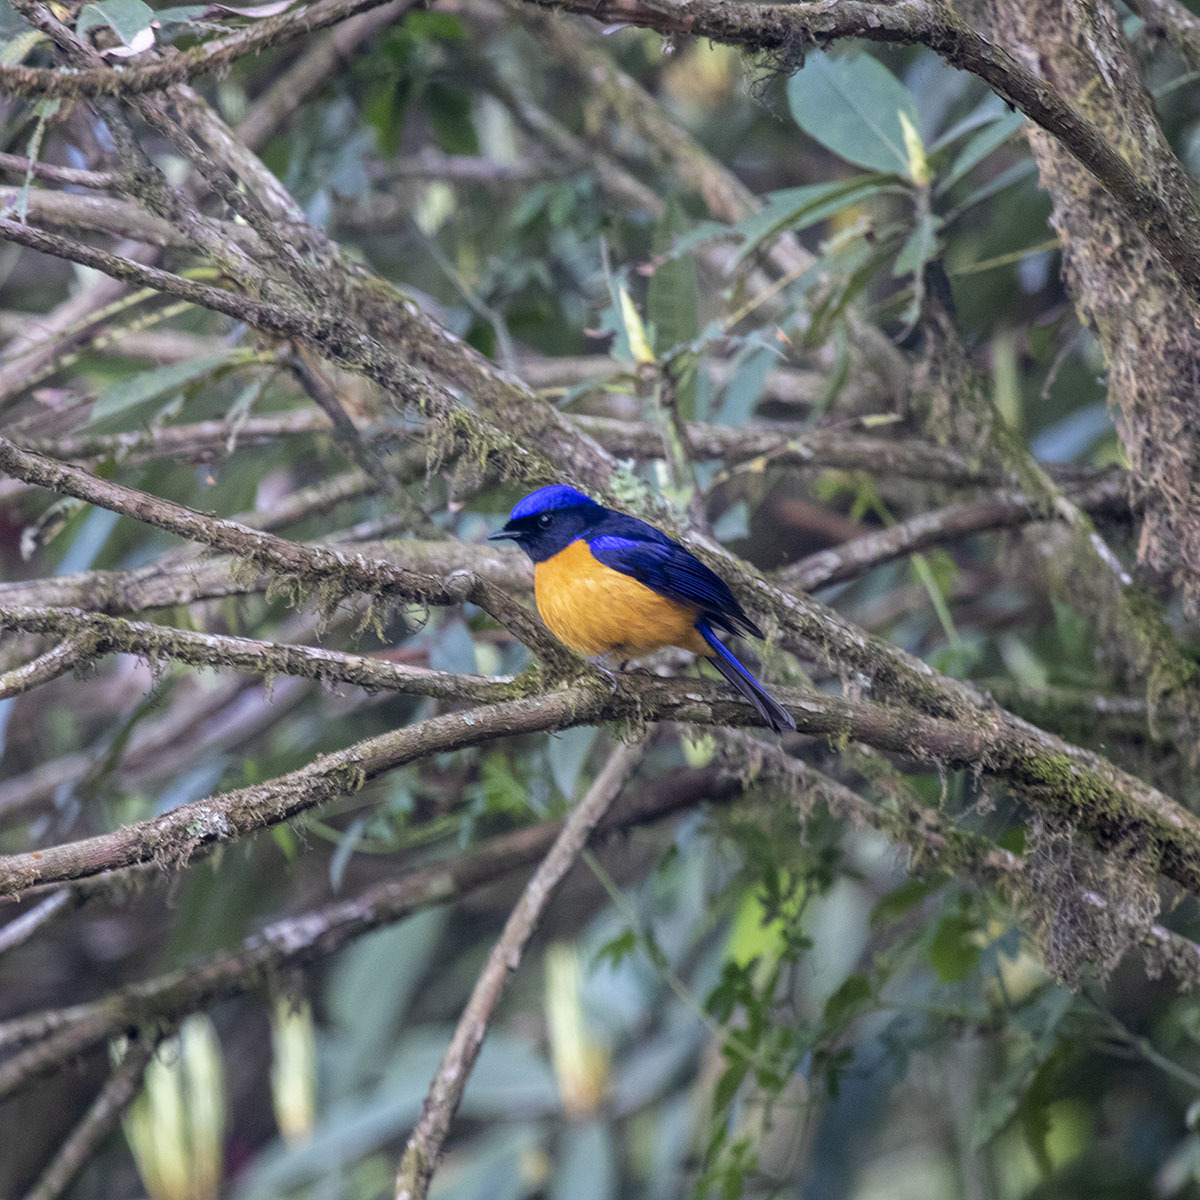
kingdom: Animalia
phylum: Chordata
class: Aves
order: Passeriformes
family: Muscicapidae
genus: Niltava
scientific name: Niltava sundara
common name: Rufous-bellied niltava
